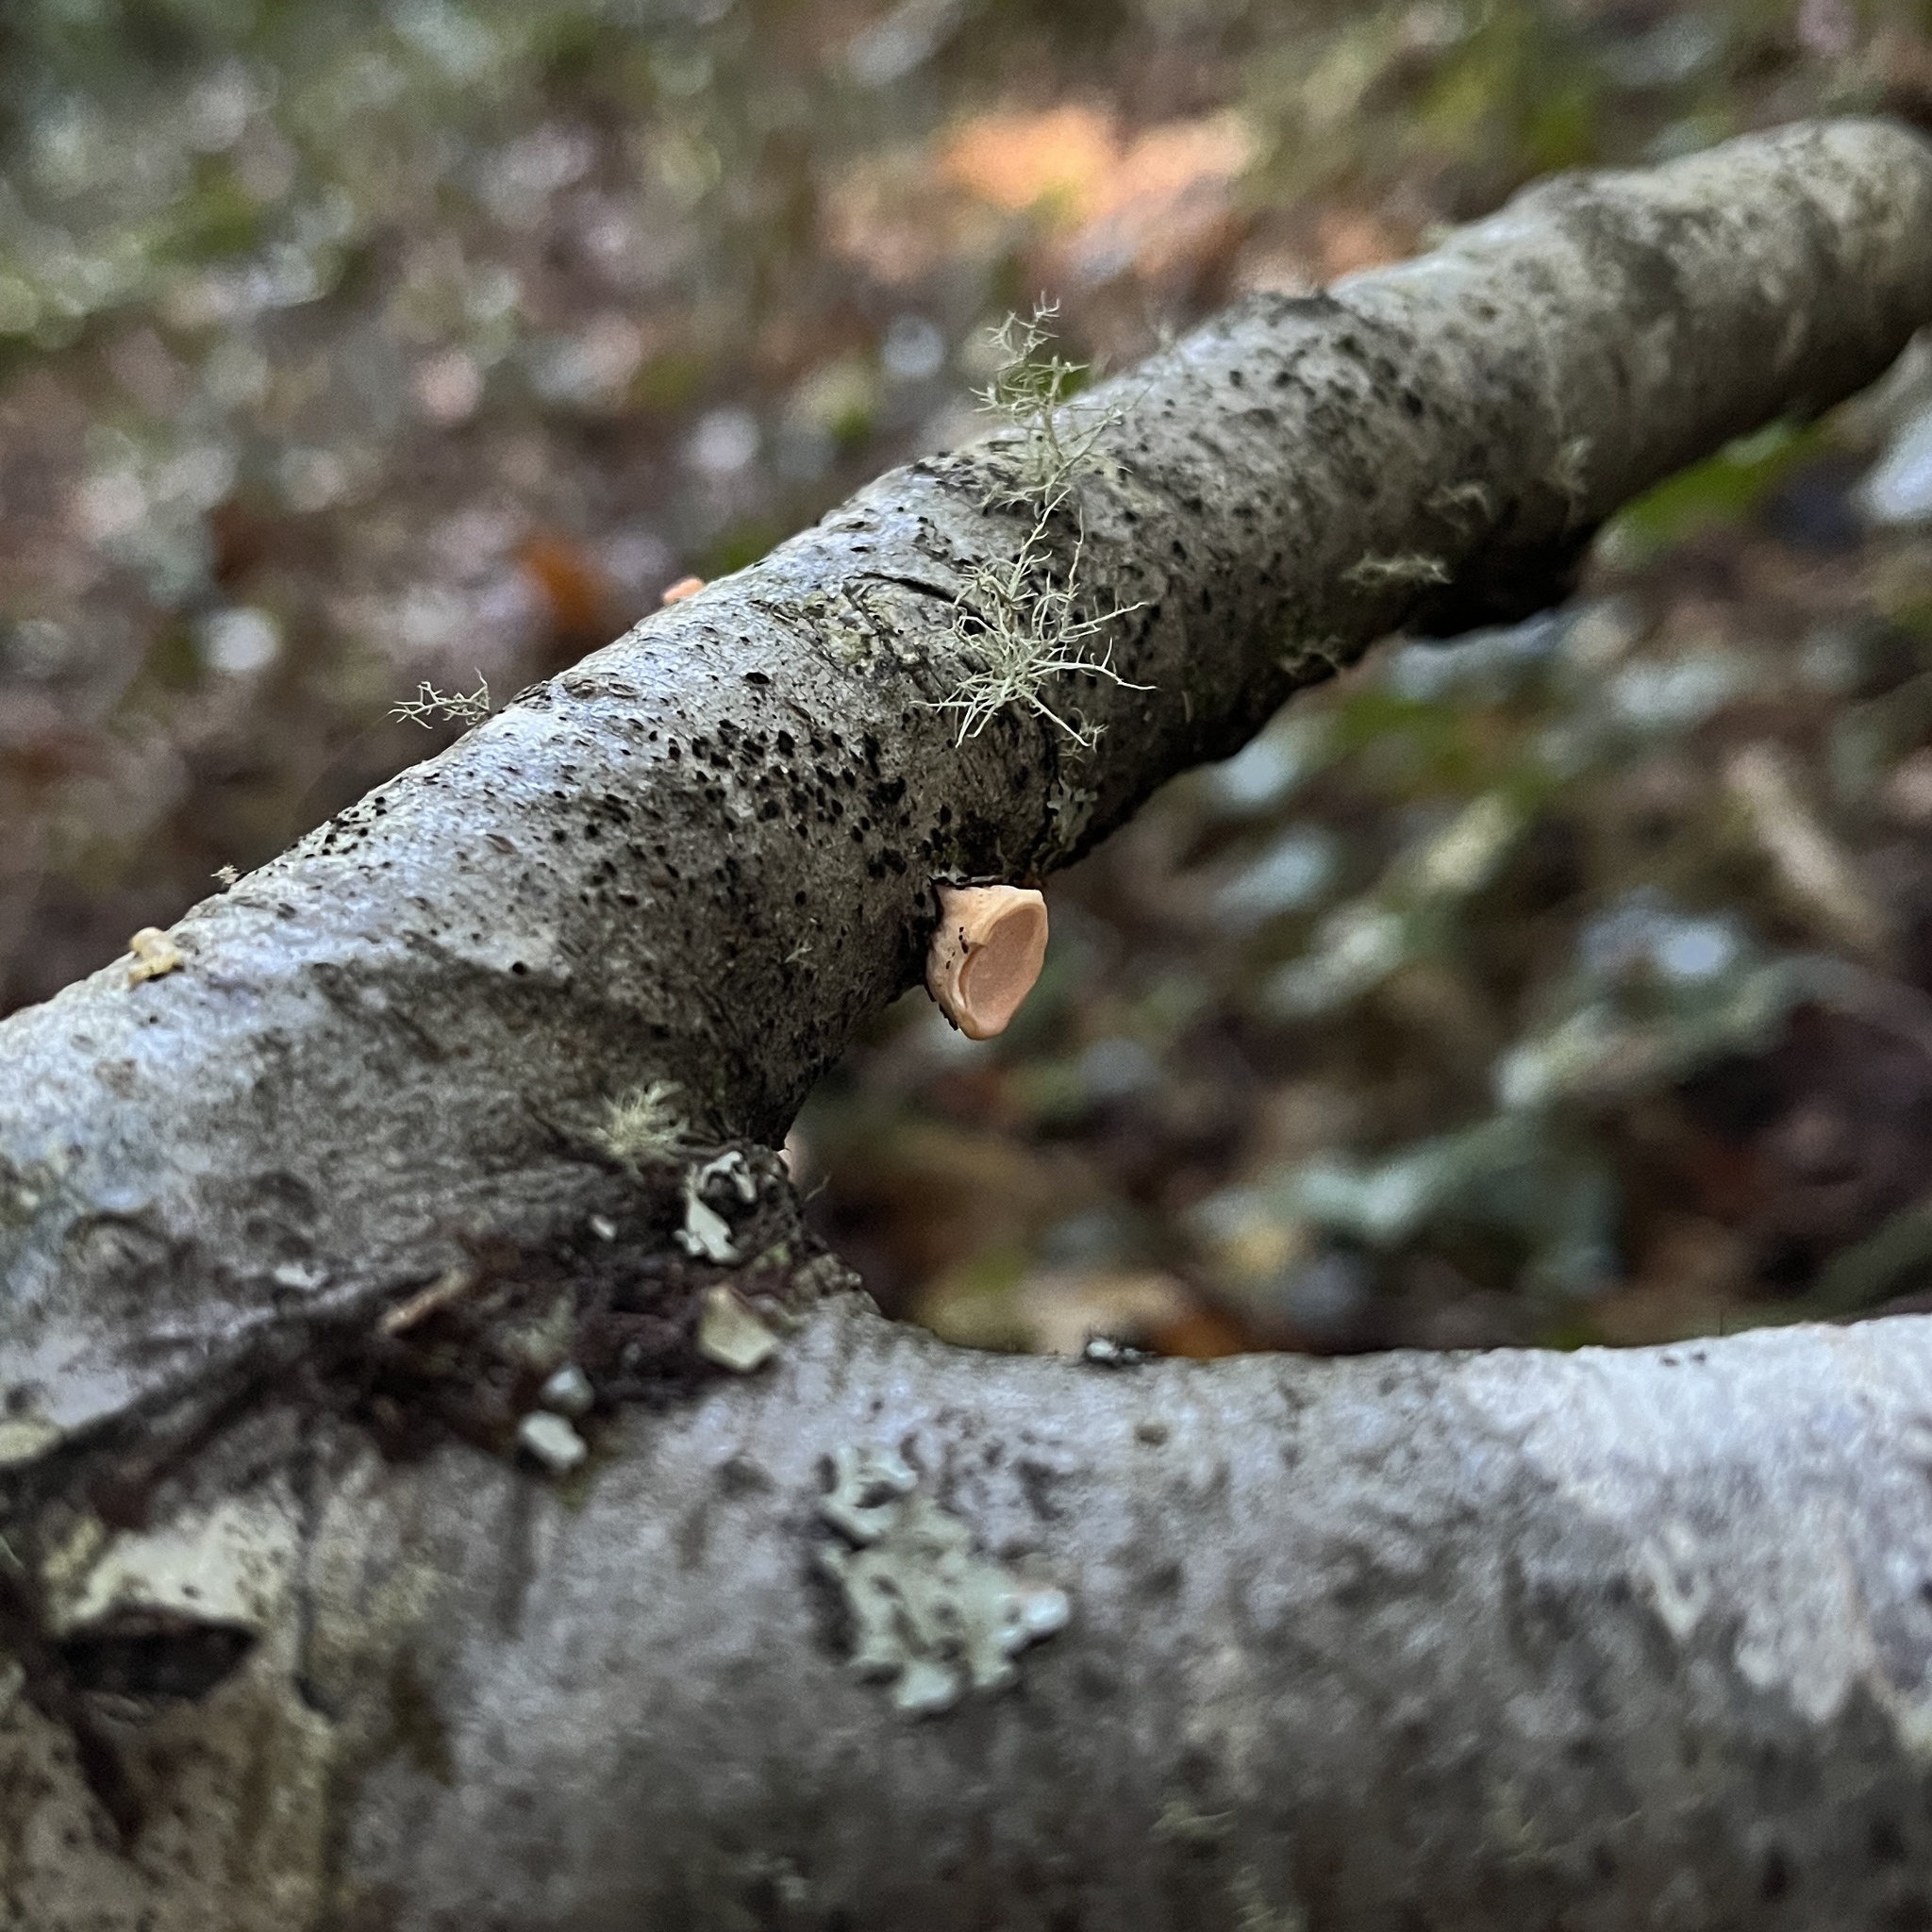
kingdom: Fungi
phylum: Basidiomycota
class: Agaricomycetes
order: Russulales
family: Stereaceae
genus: Aleurodiscus
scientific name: Aleurodiscus vitellinus
